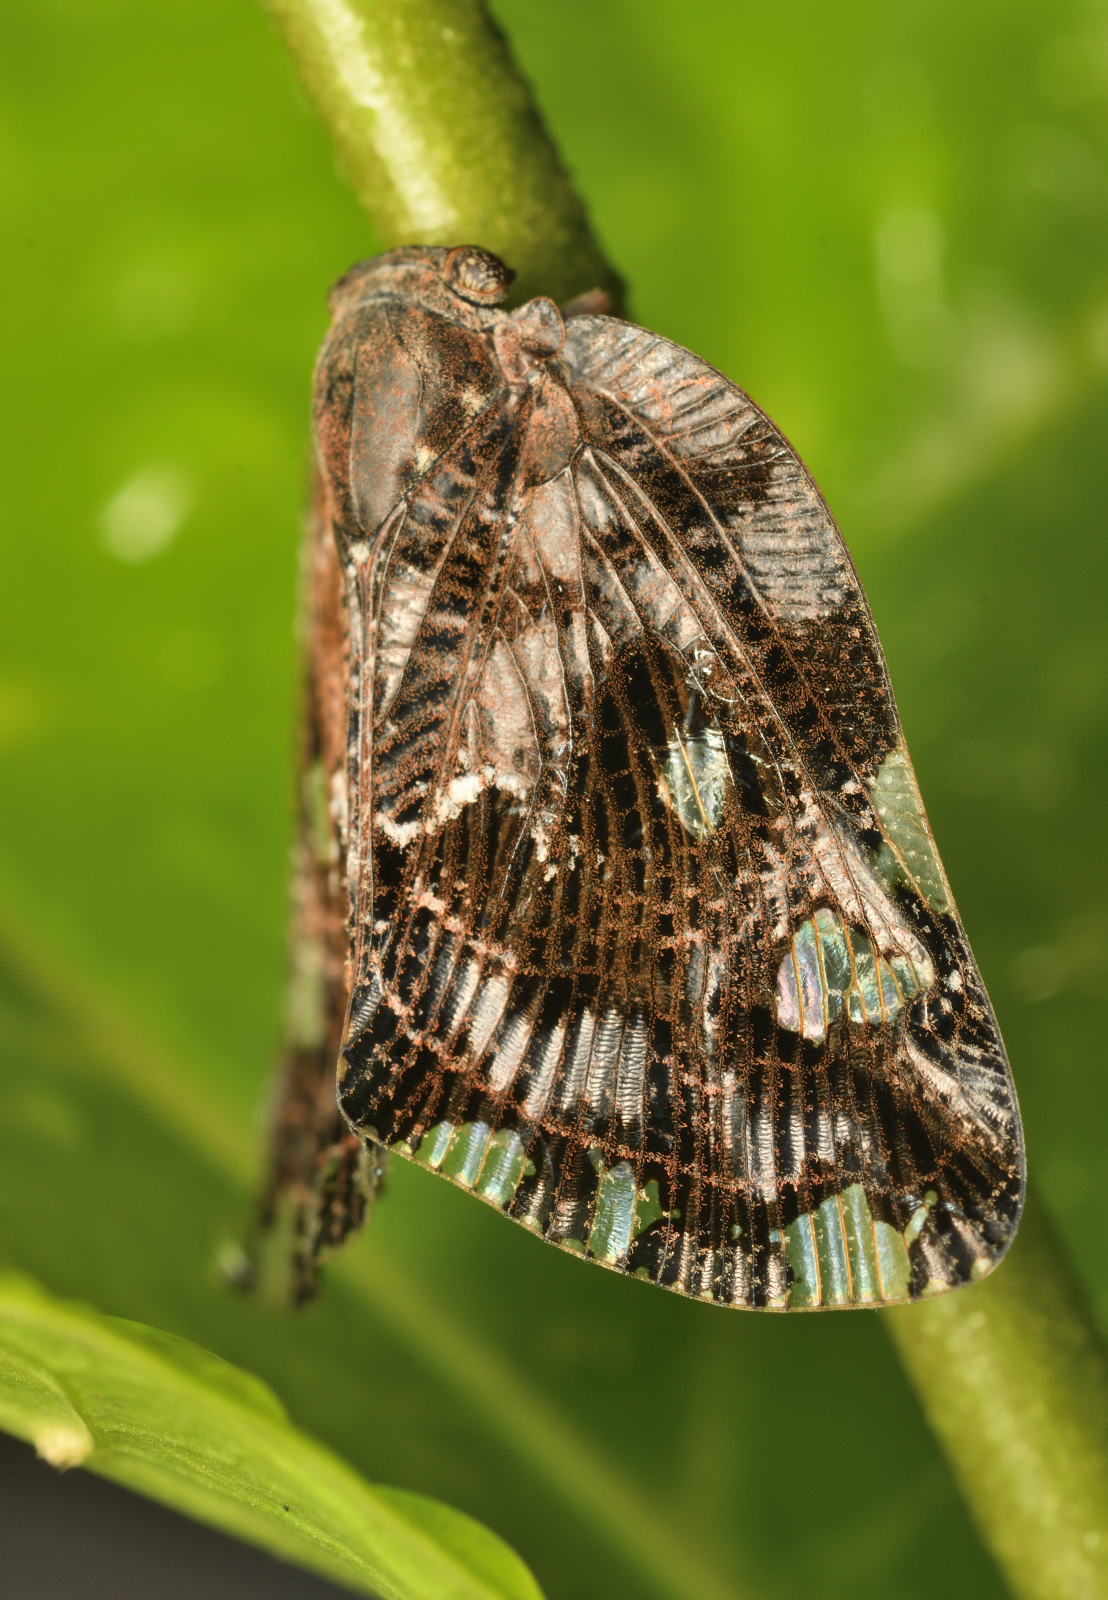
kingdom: Animalia
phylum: Arthropoda
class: Insecta
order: Hemiptera
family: Ricaniidae
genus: Ricania
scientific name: Ricania speculum
